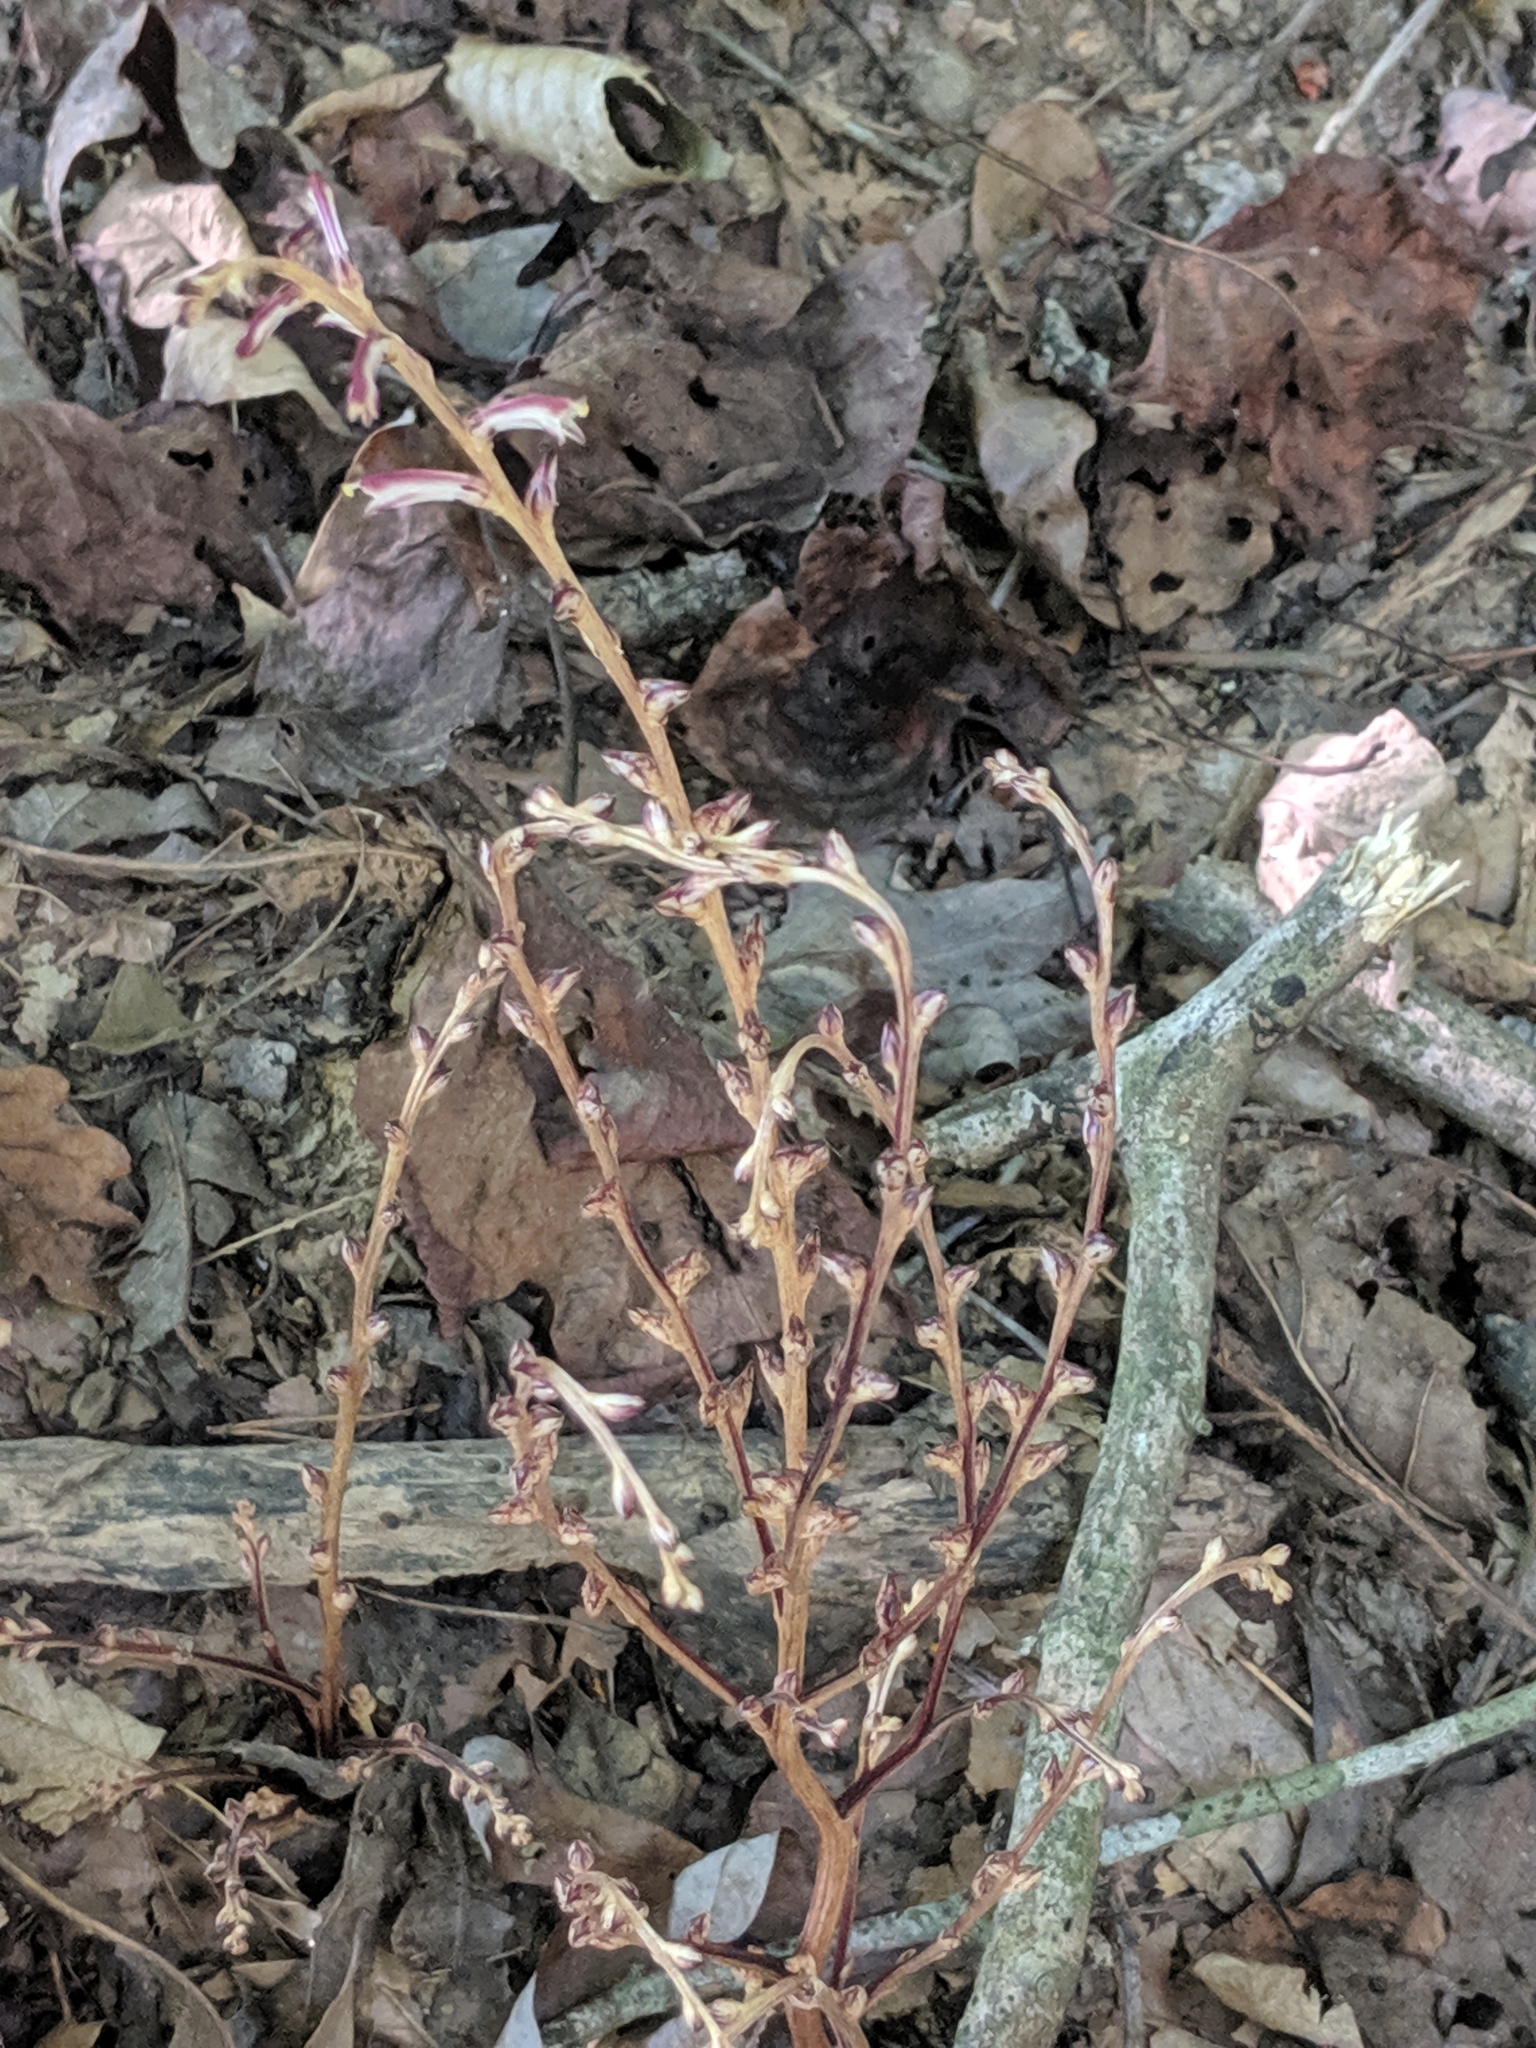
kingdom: Plantae
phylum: Tracheophyta
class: Magnoliopsida
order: Lamiales
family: Orobanchaceae
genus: Epifagus
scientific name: Epifagus virginiana
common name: Beechdrops
